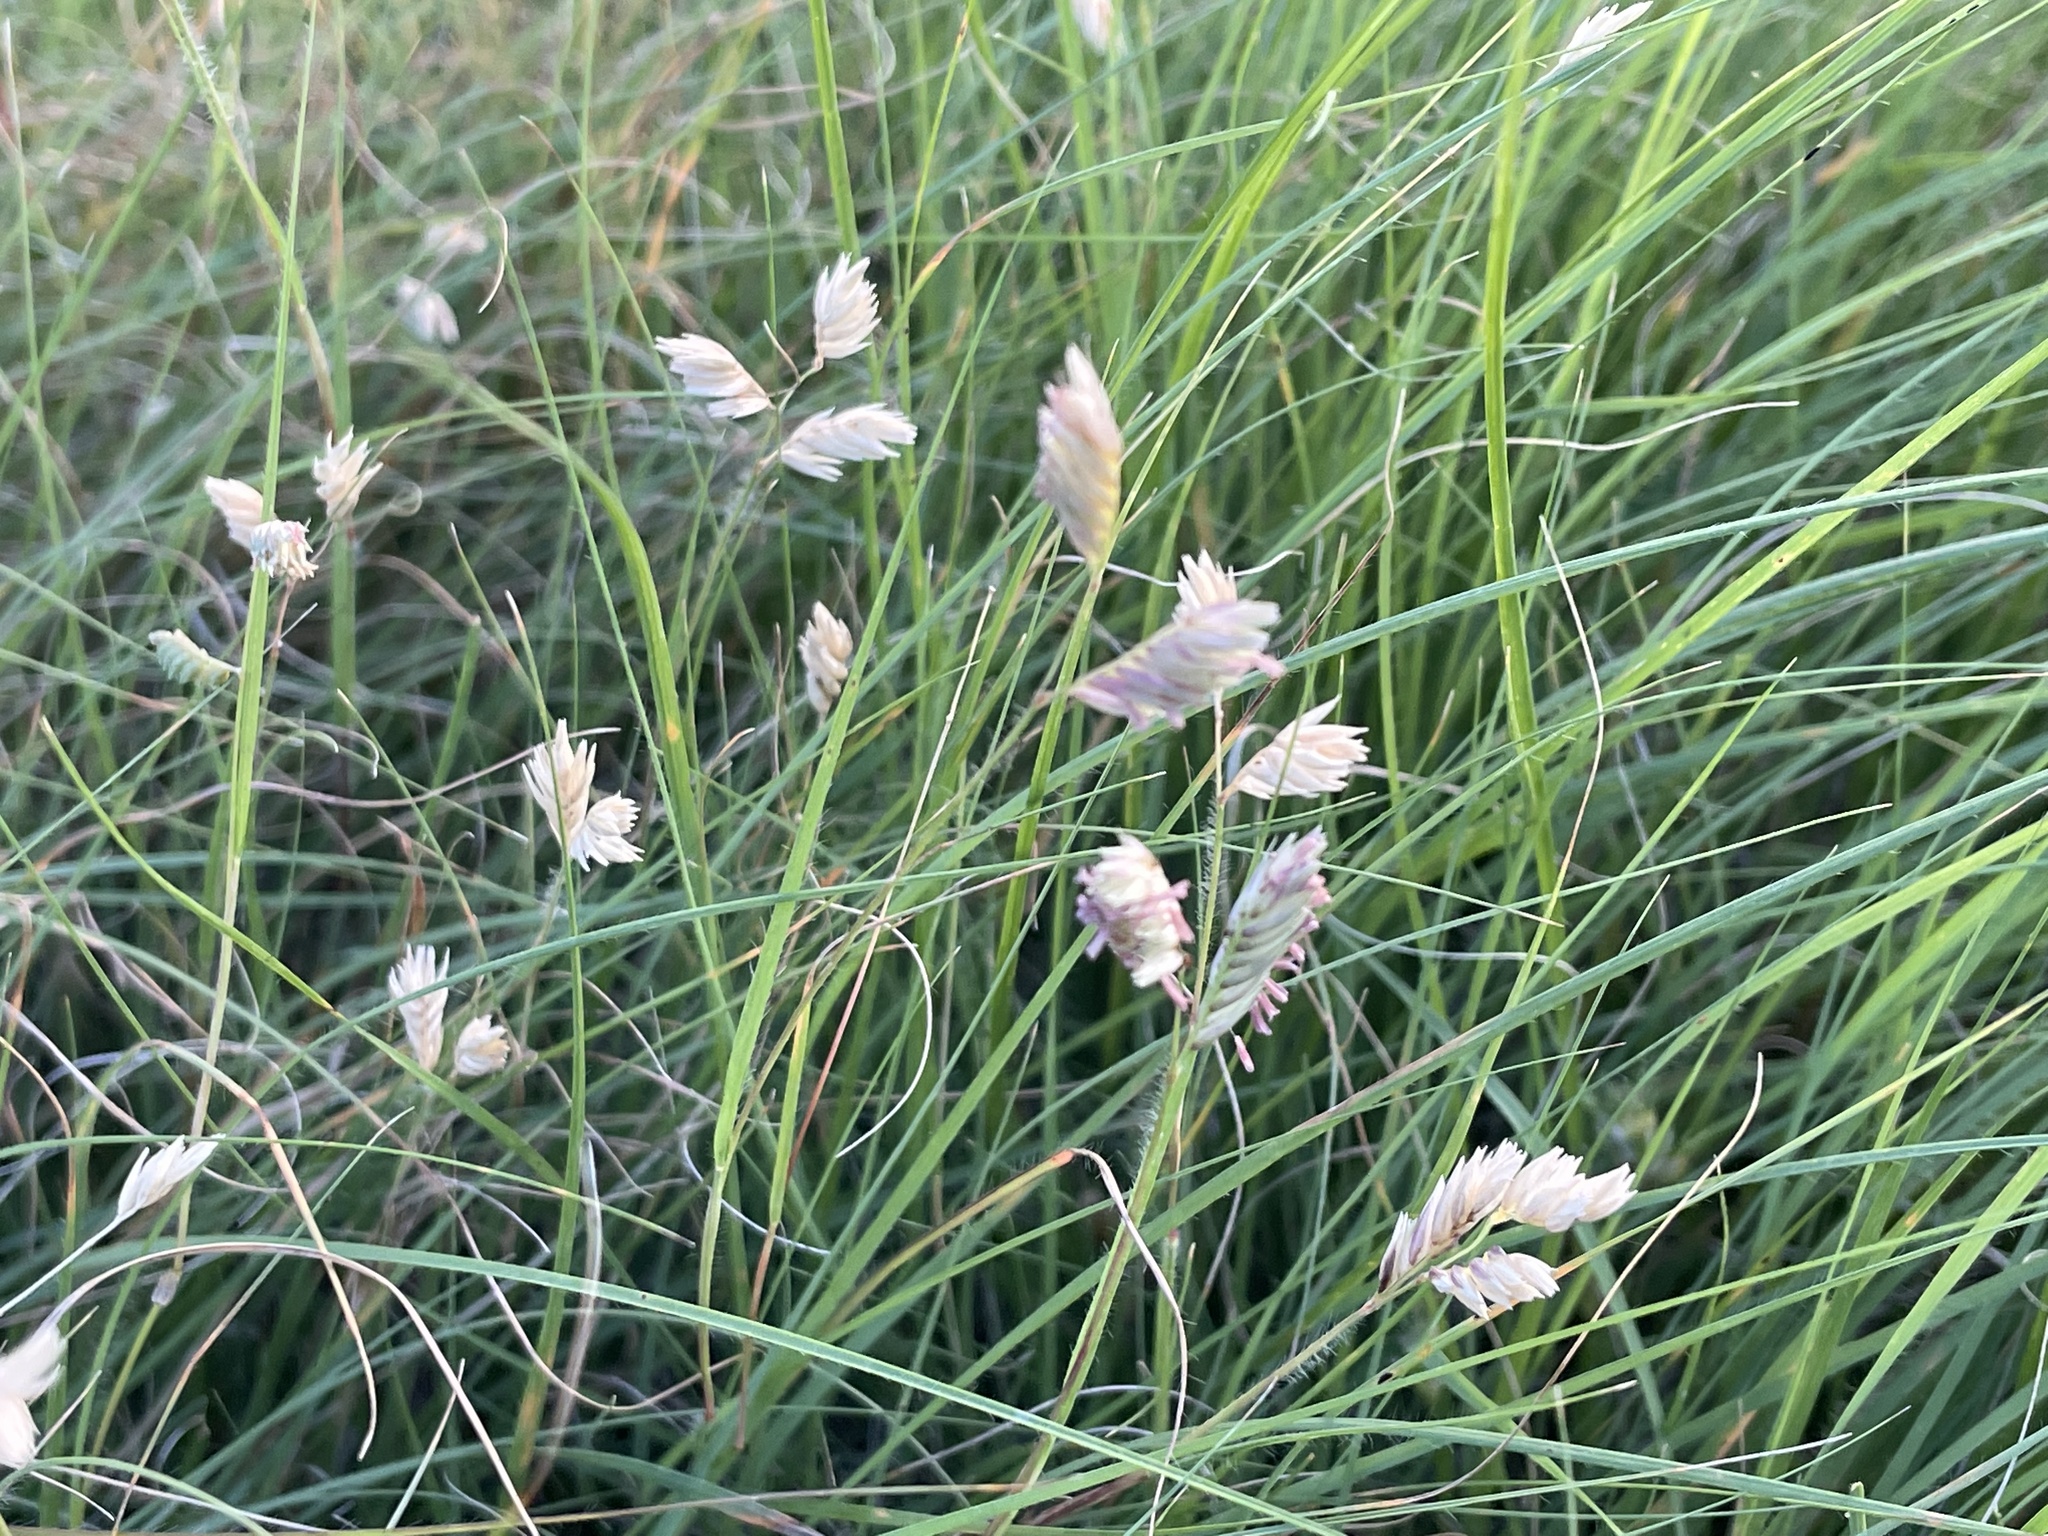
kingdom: Plantae
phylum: Tracheophyta
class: Liliopsida
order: Poales
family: Poaceae
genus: Bouteloua
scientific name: Bouteloua dactyloides
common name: Buffalo grass
